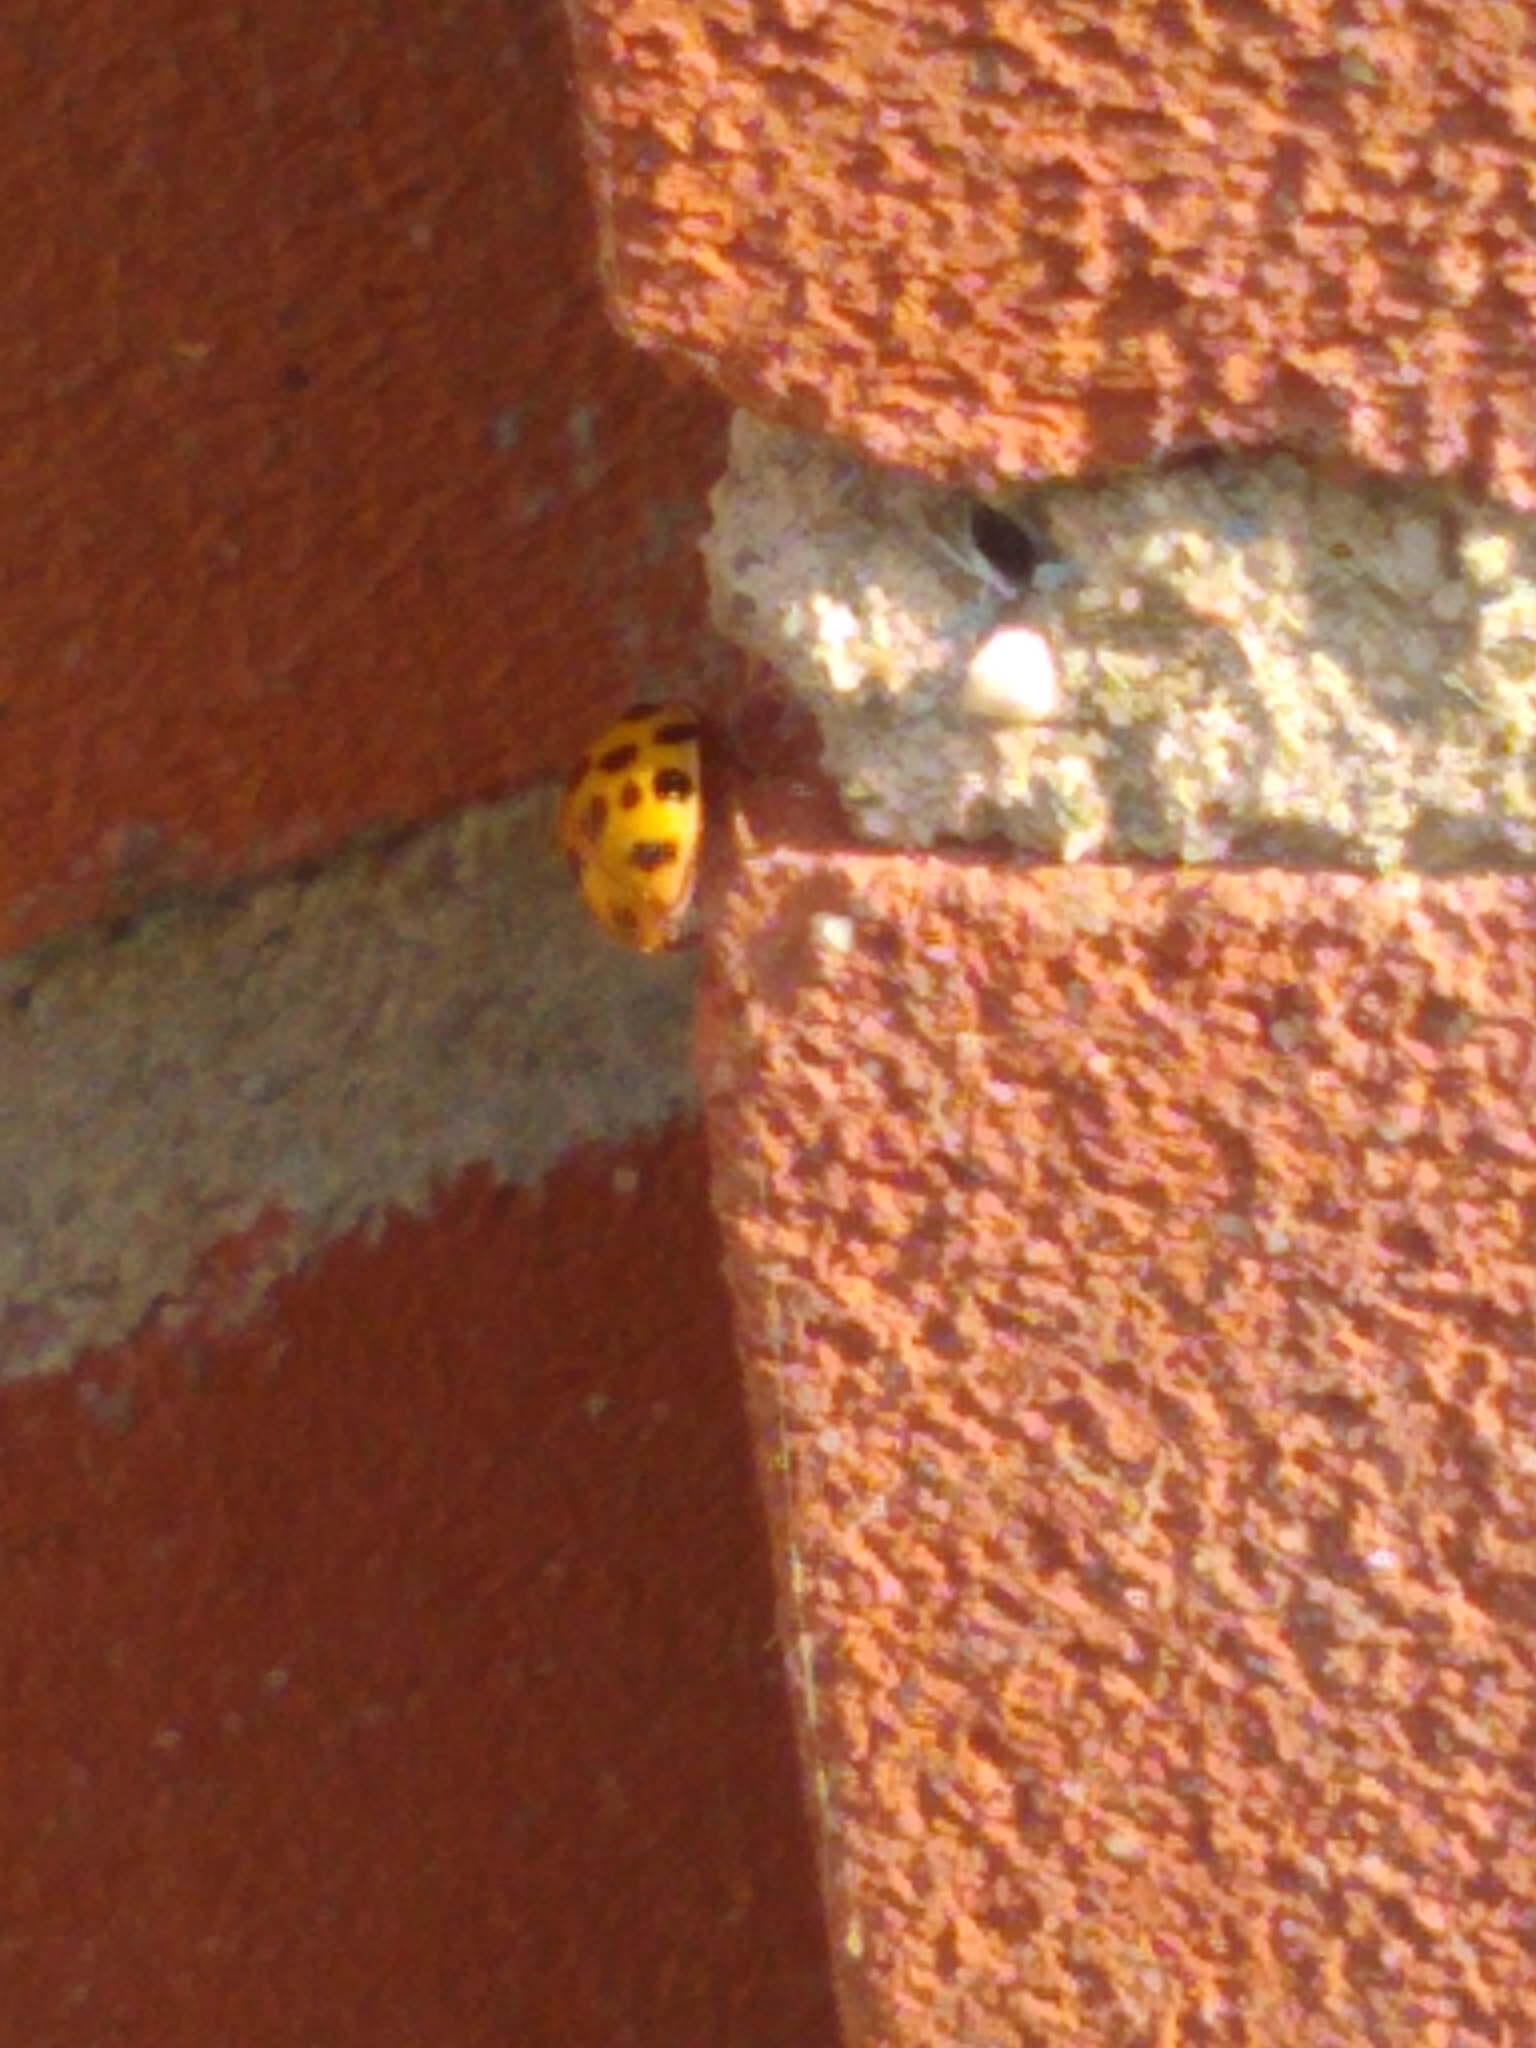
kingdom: Animalia
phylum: Arthropoda
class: Insecta
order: Coleoptera
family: Coccinellidae
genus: Harmonia
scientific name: Harmonia axyridis
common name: Harlequin ladybird
